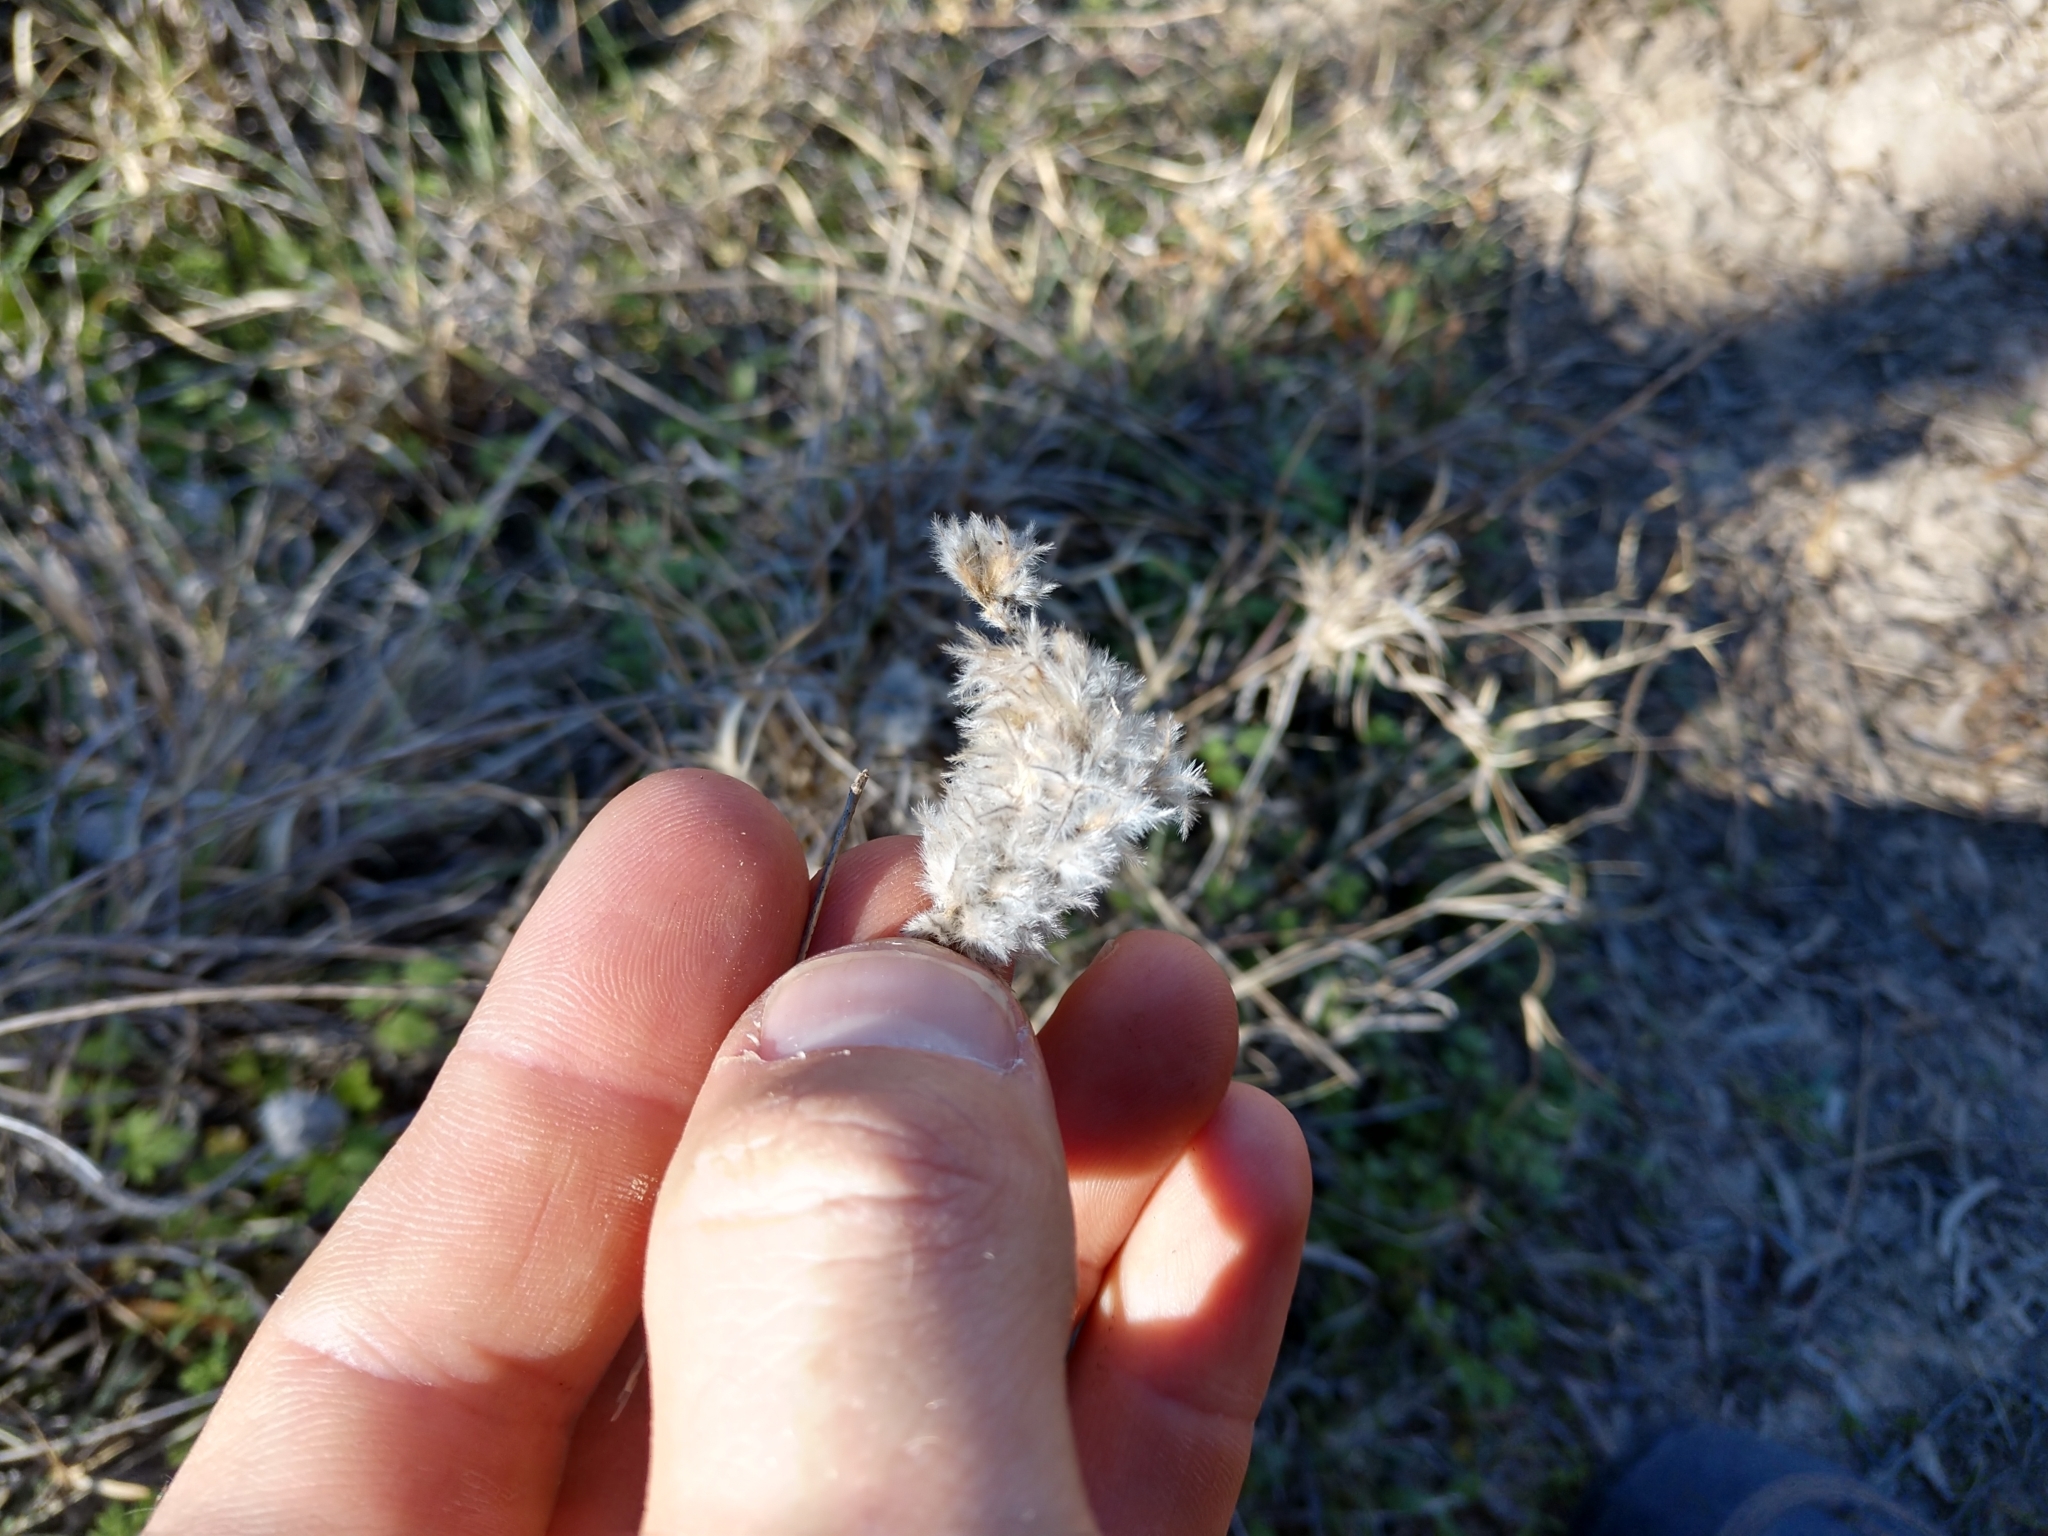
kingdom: Plantae
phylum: Tracheophyta
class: Magnoliopsida
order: Fabales
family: Fabaceae
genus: Dalea
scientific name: Dalea aurea
